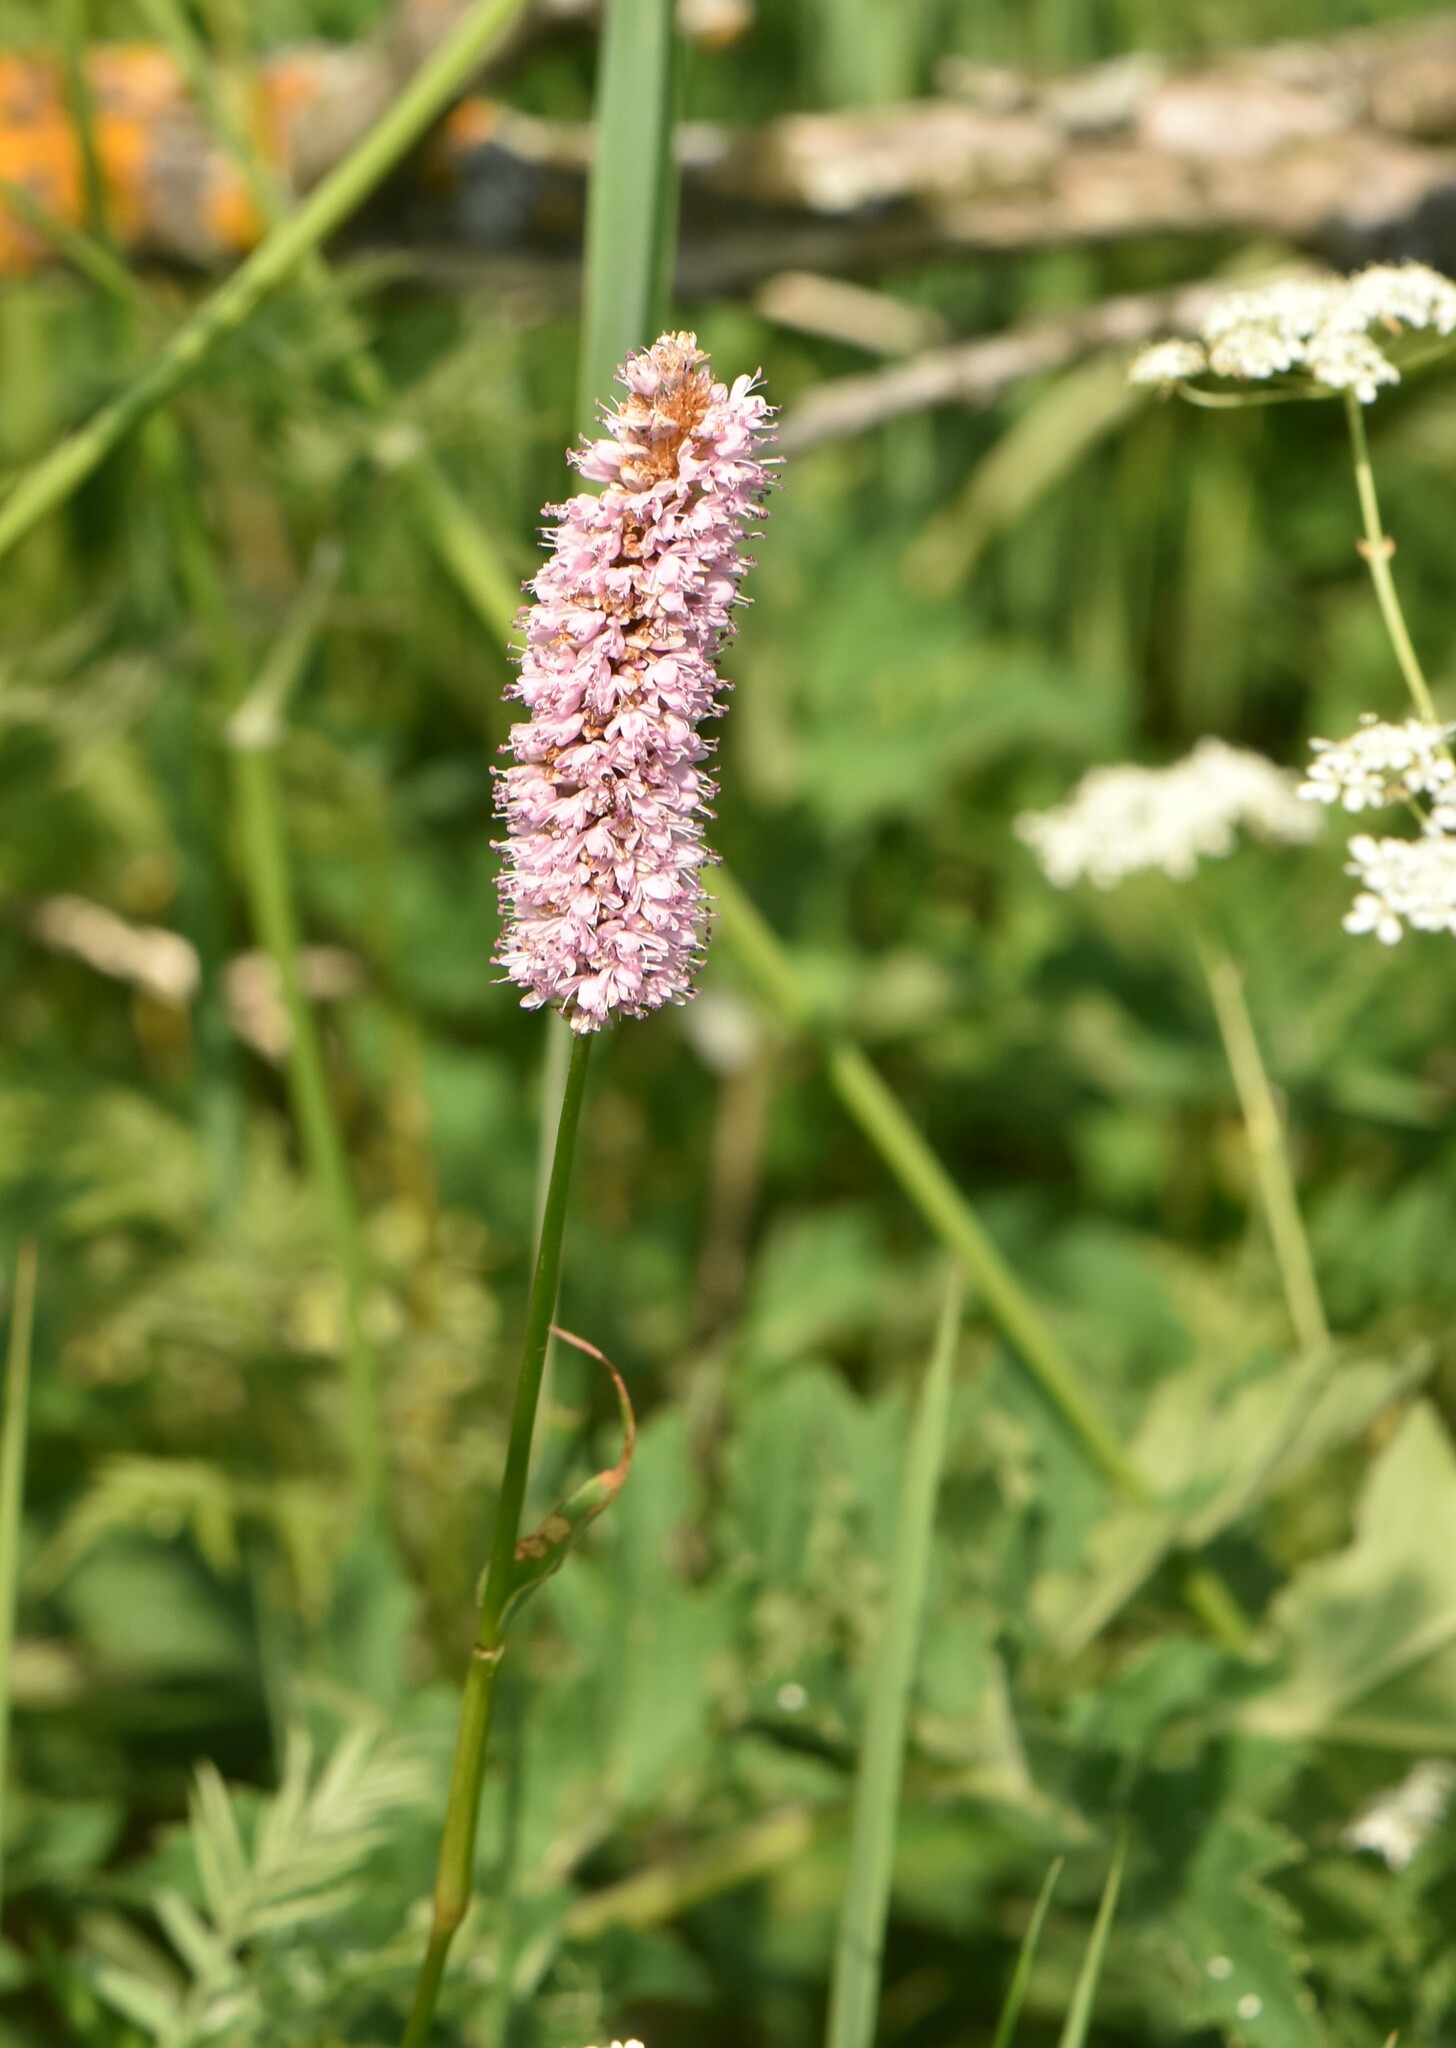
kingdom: Plantae
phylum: Tracheophyta
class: Magnoliopsida
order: Caryophyllales
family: Polygonaceae
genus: Bistorta
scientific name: Bistorta officinalis
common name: Common bistort
